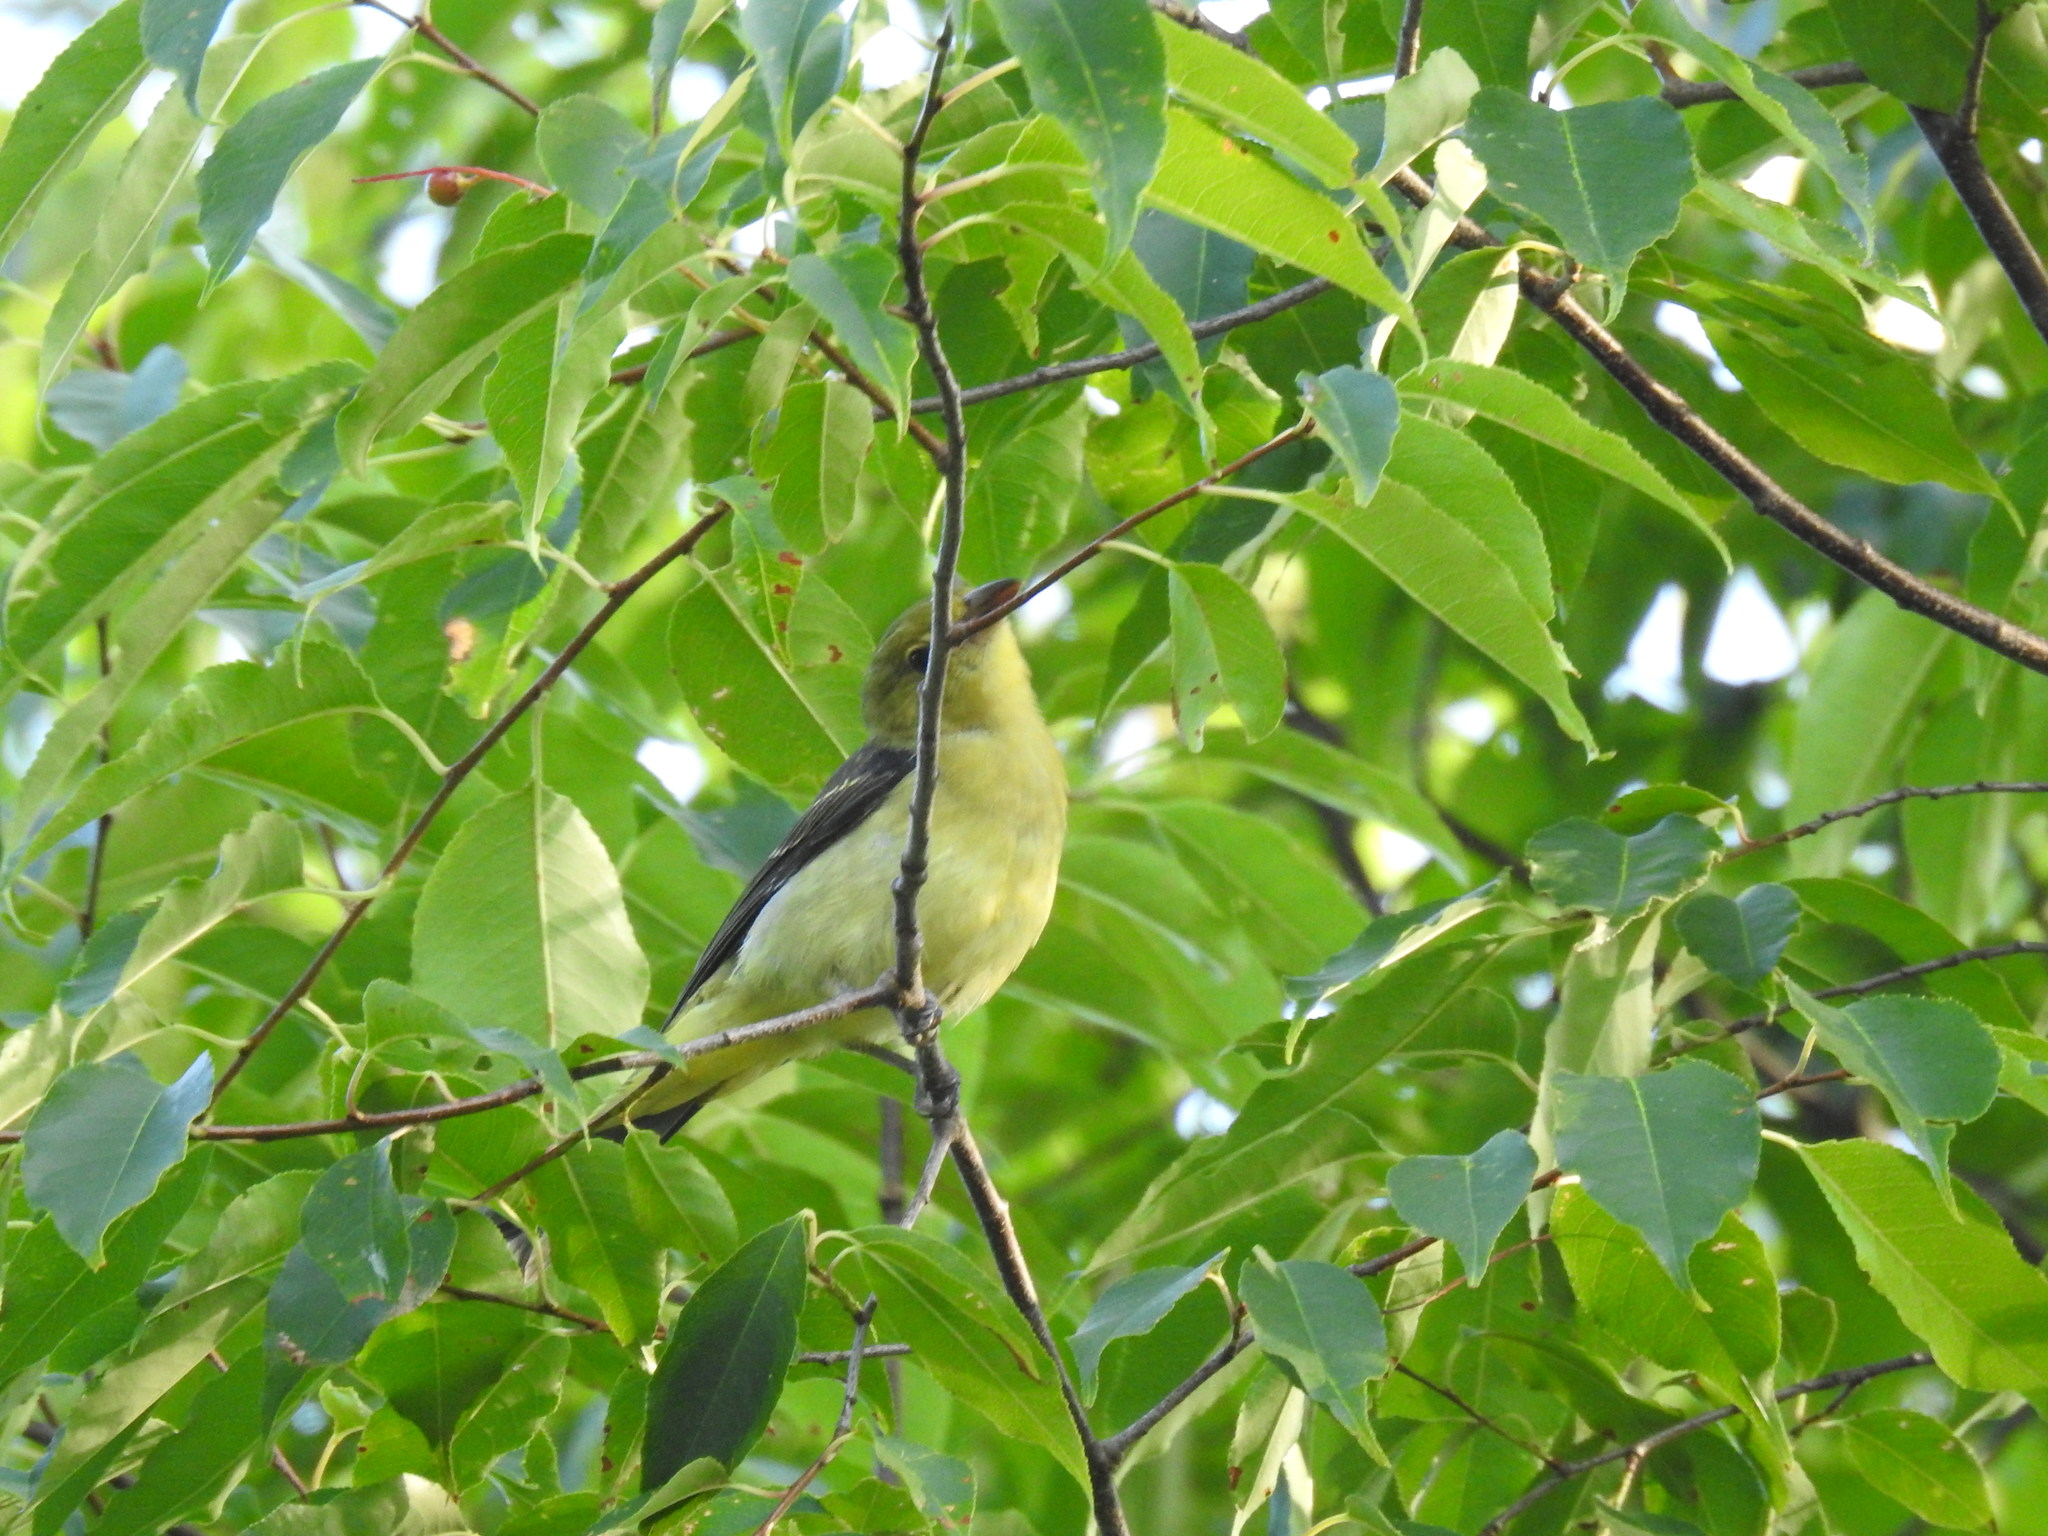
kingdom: Animalia
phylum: Chordata
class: Aves
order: Passeriformes
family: Cardinalidae
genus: Piranga
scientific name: Piranga olivacea
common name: Scarlet tanager
